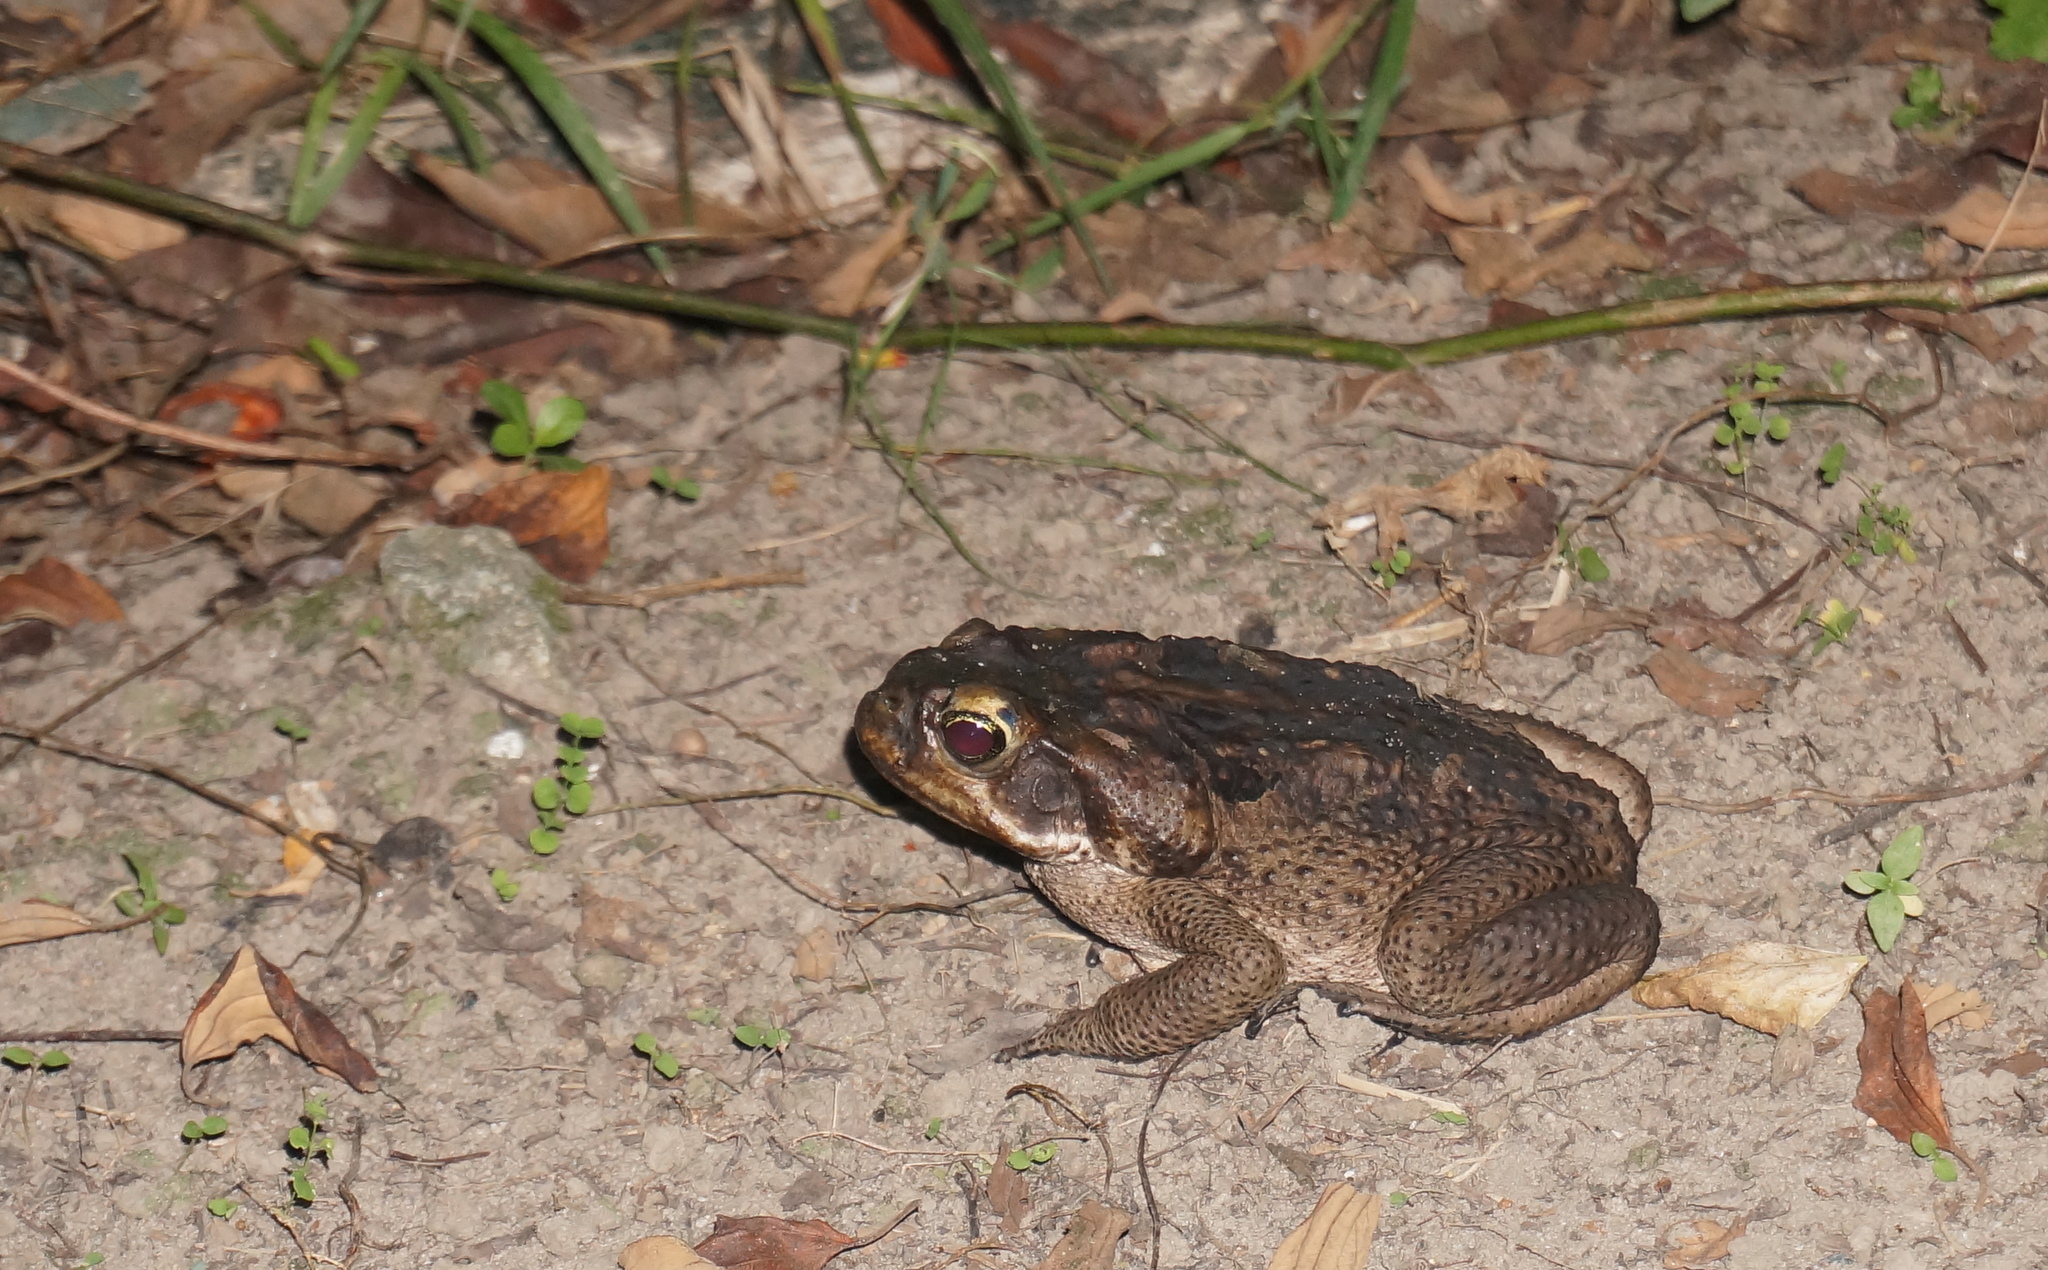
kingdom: Animalia
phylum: Chordata
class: Amphibia
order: Anura
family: Bufonidae
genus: Rhinella
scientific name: Rhinella marina
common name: Cane toad
